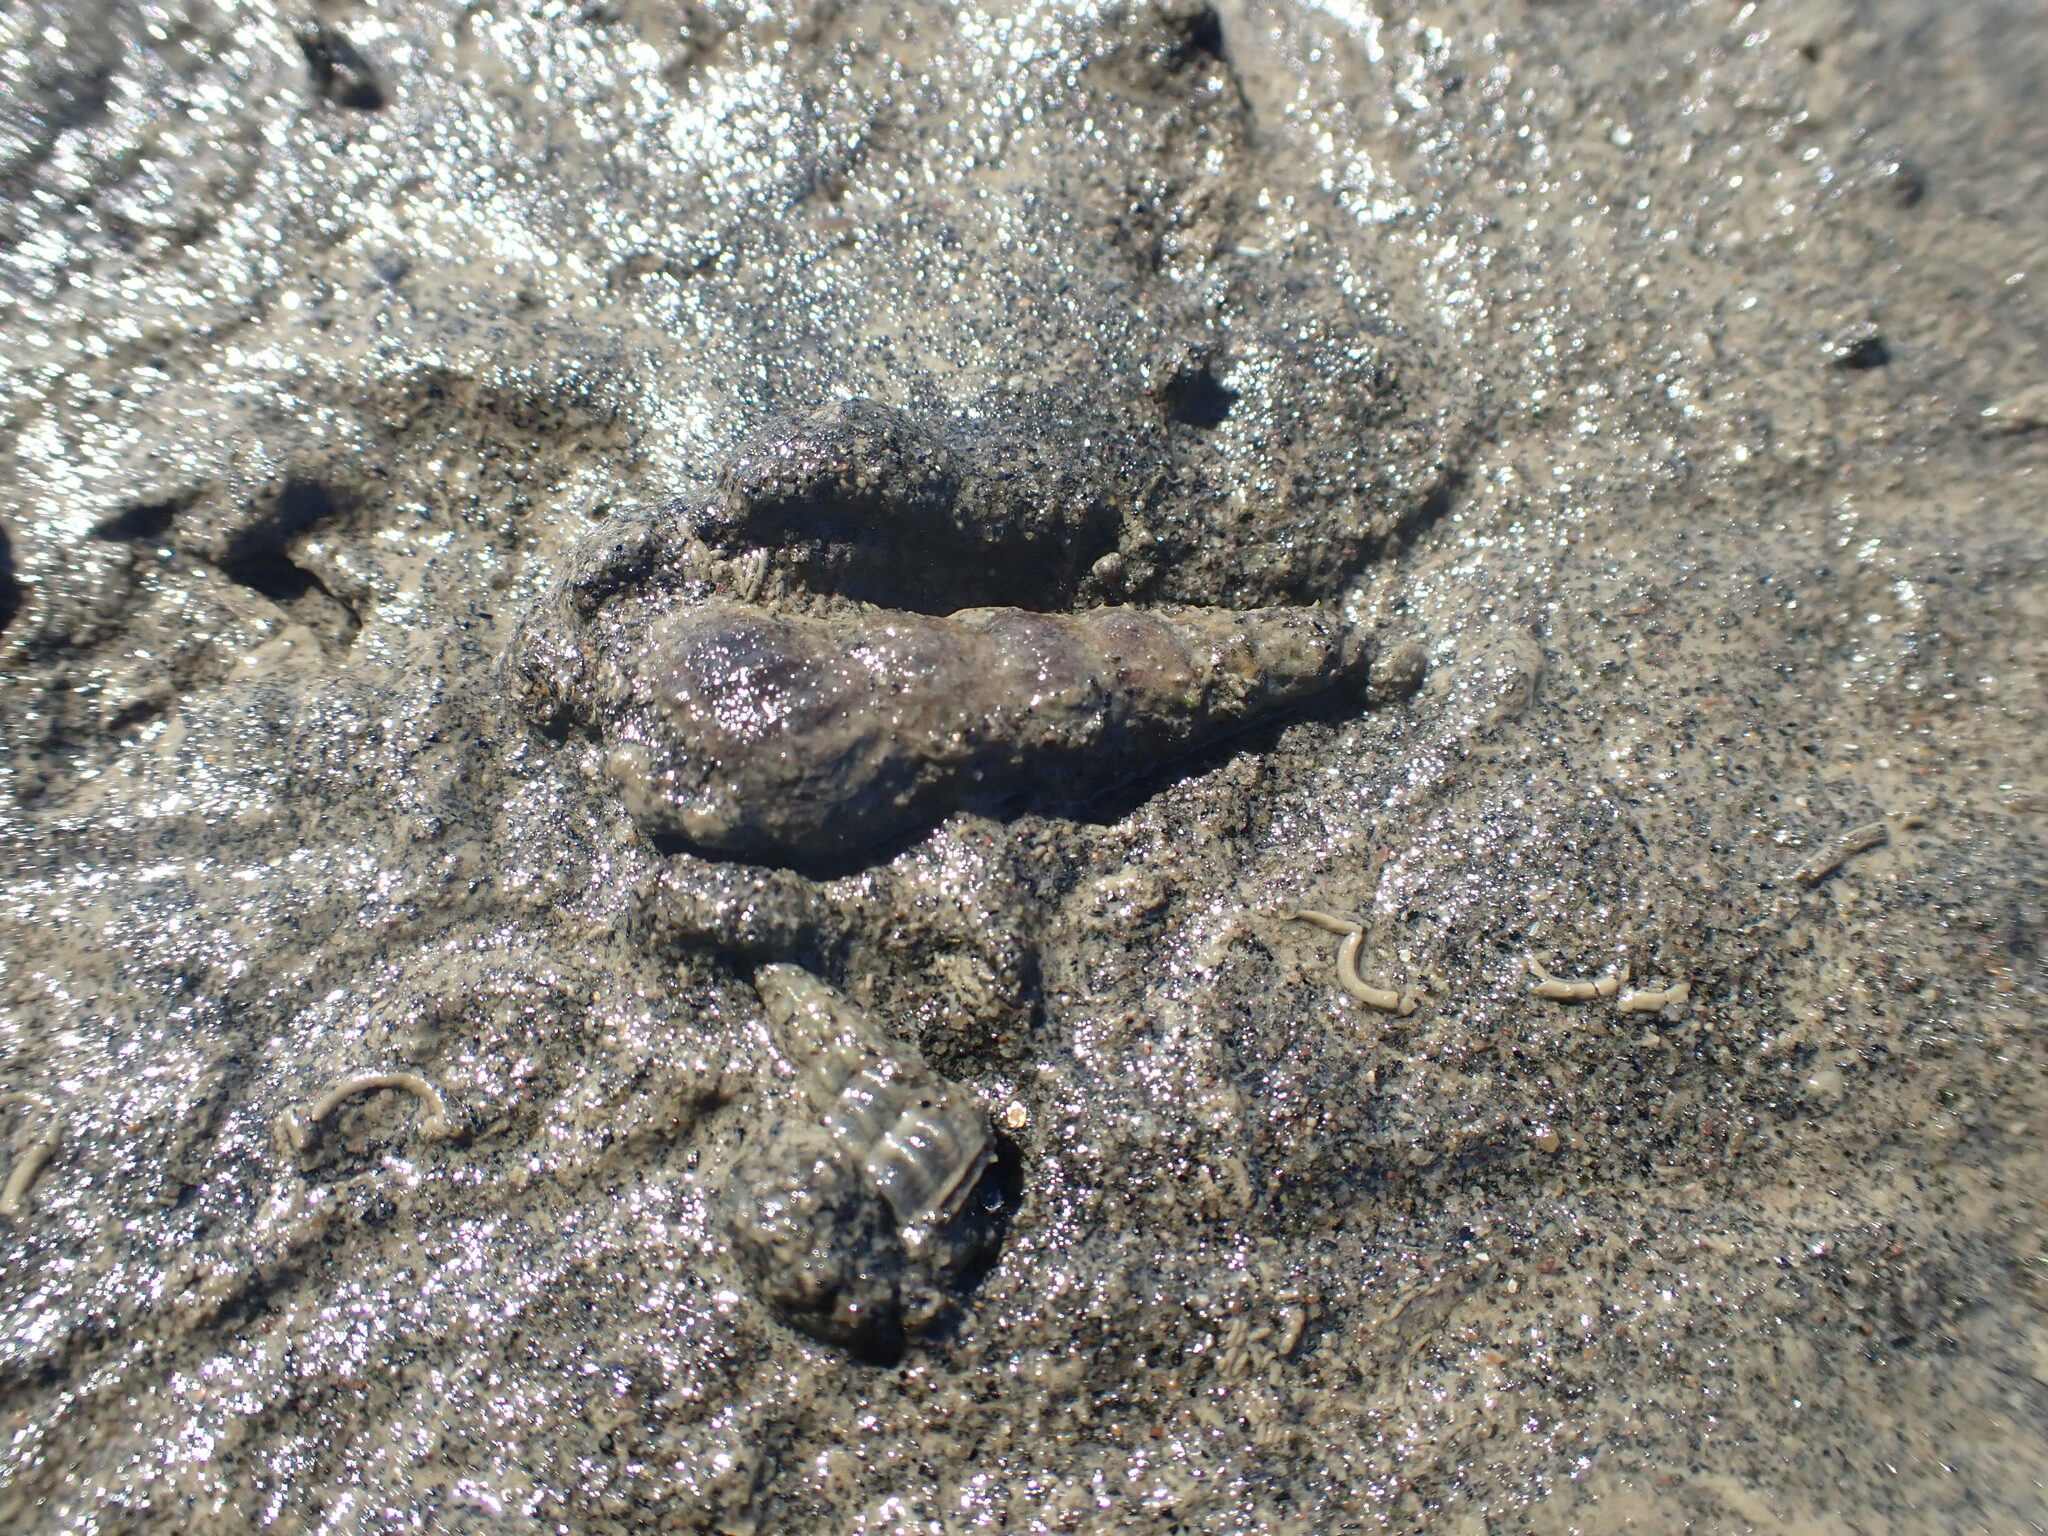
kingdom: Animalia
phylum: Mollusca
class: Gastropoda
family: Batillariidae
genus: Zeacumantus
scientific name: Zeacumantus lutulentus
